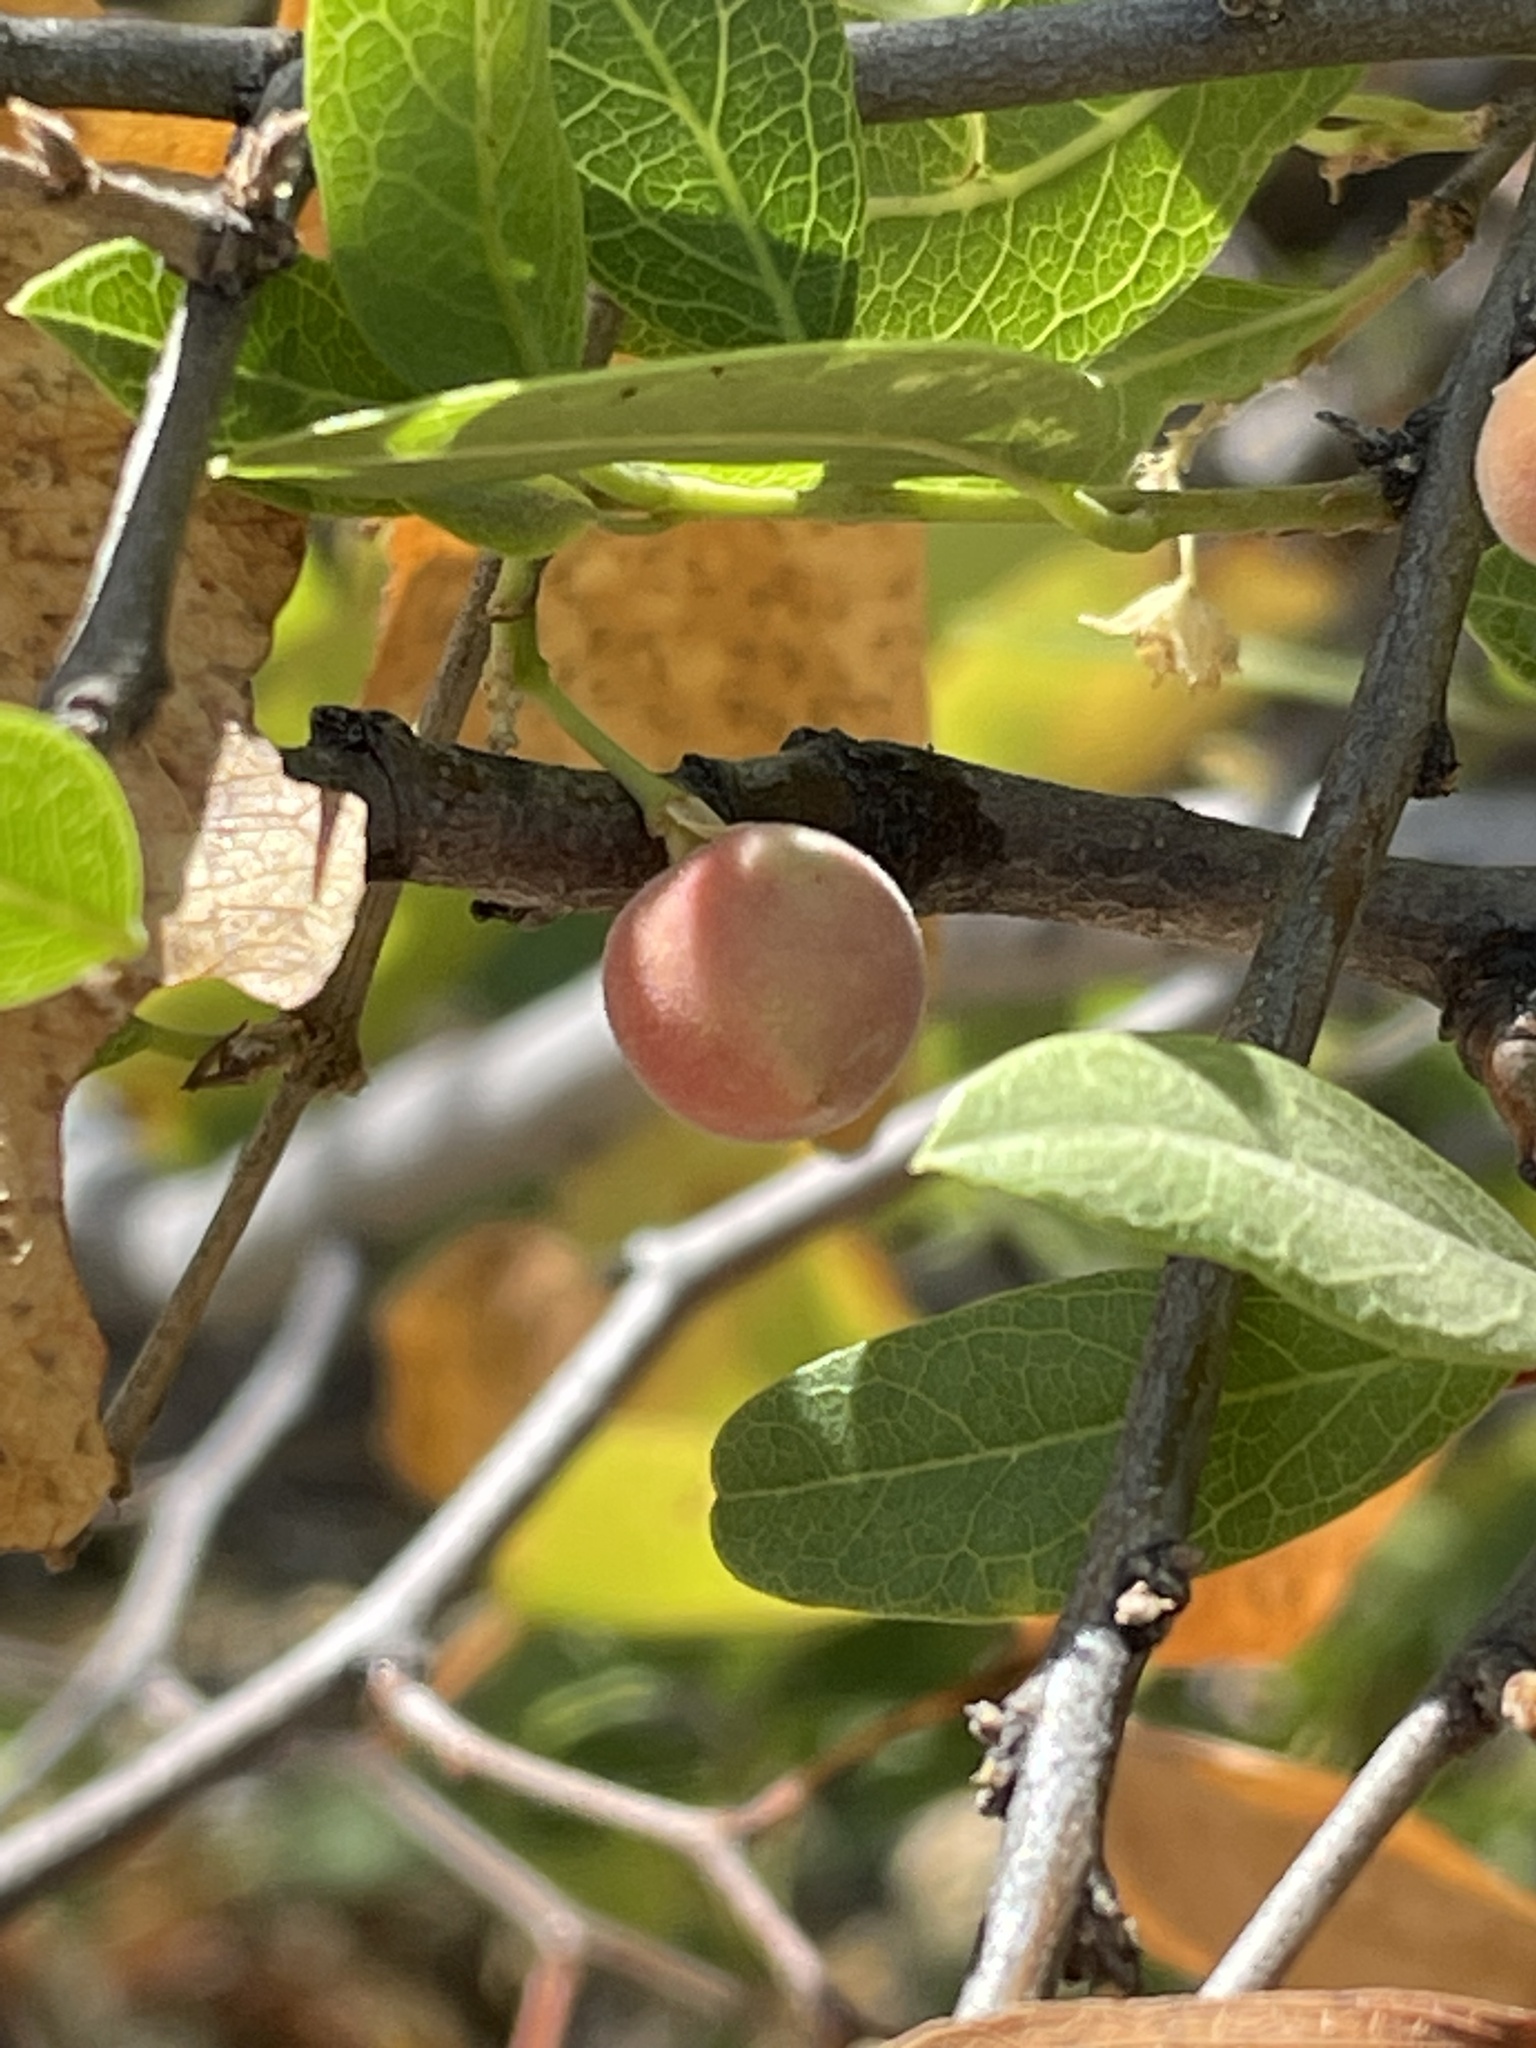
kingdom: Plantae
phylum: Tracheophyta
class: Magnoliopsida
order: Brassicales
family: Capparaceae
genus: Boscia
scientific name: Boscia mossambicensis
